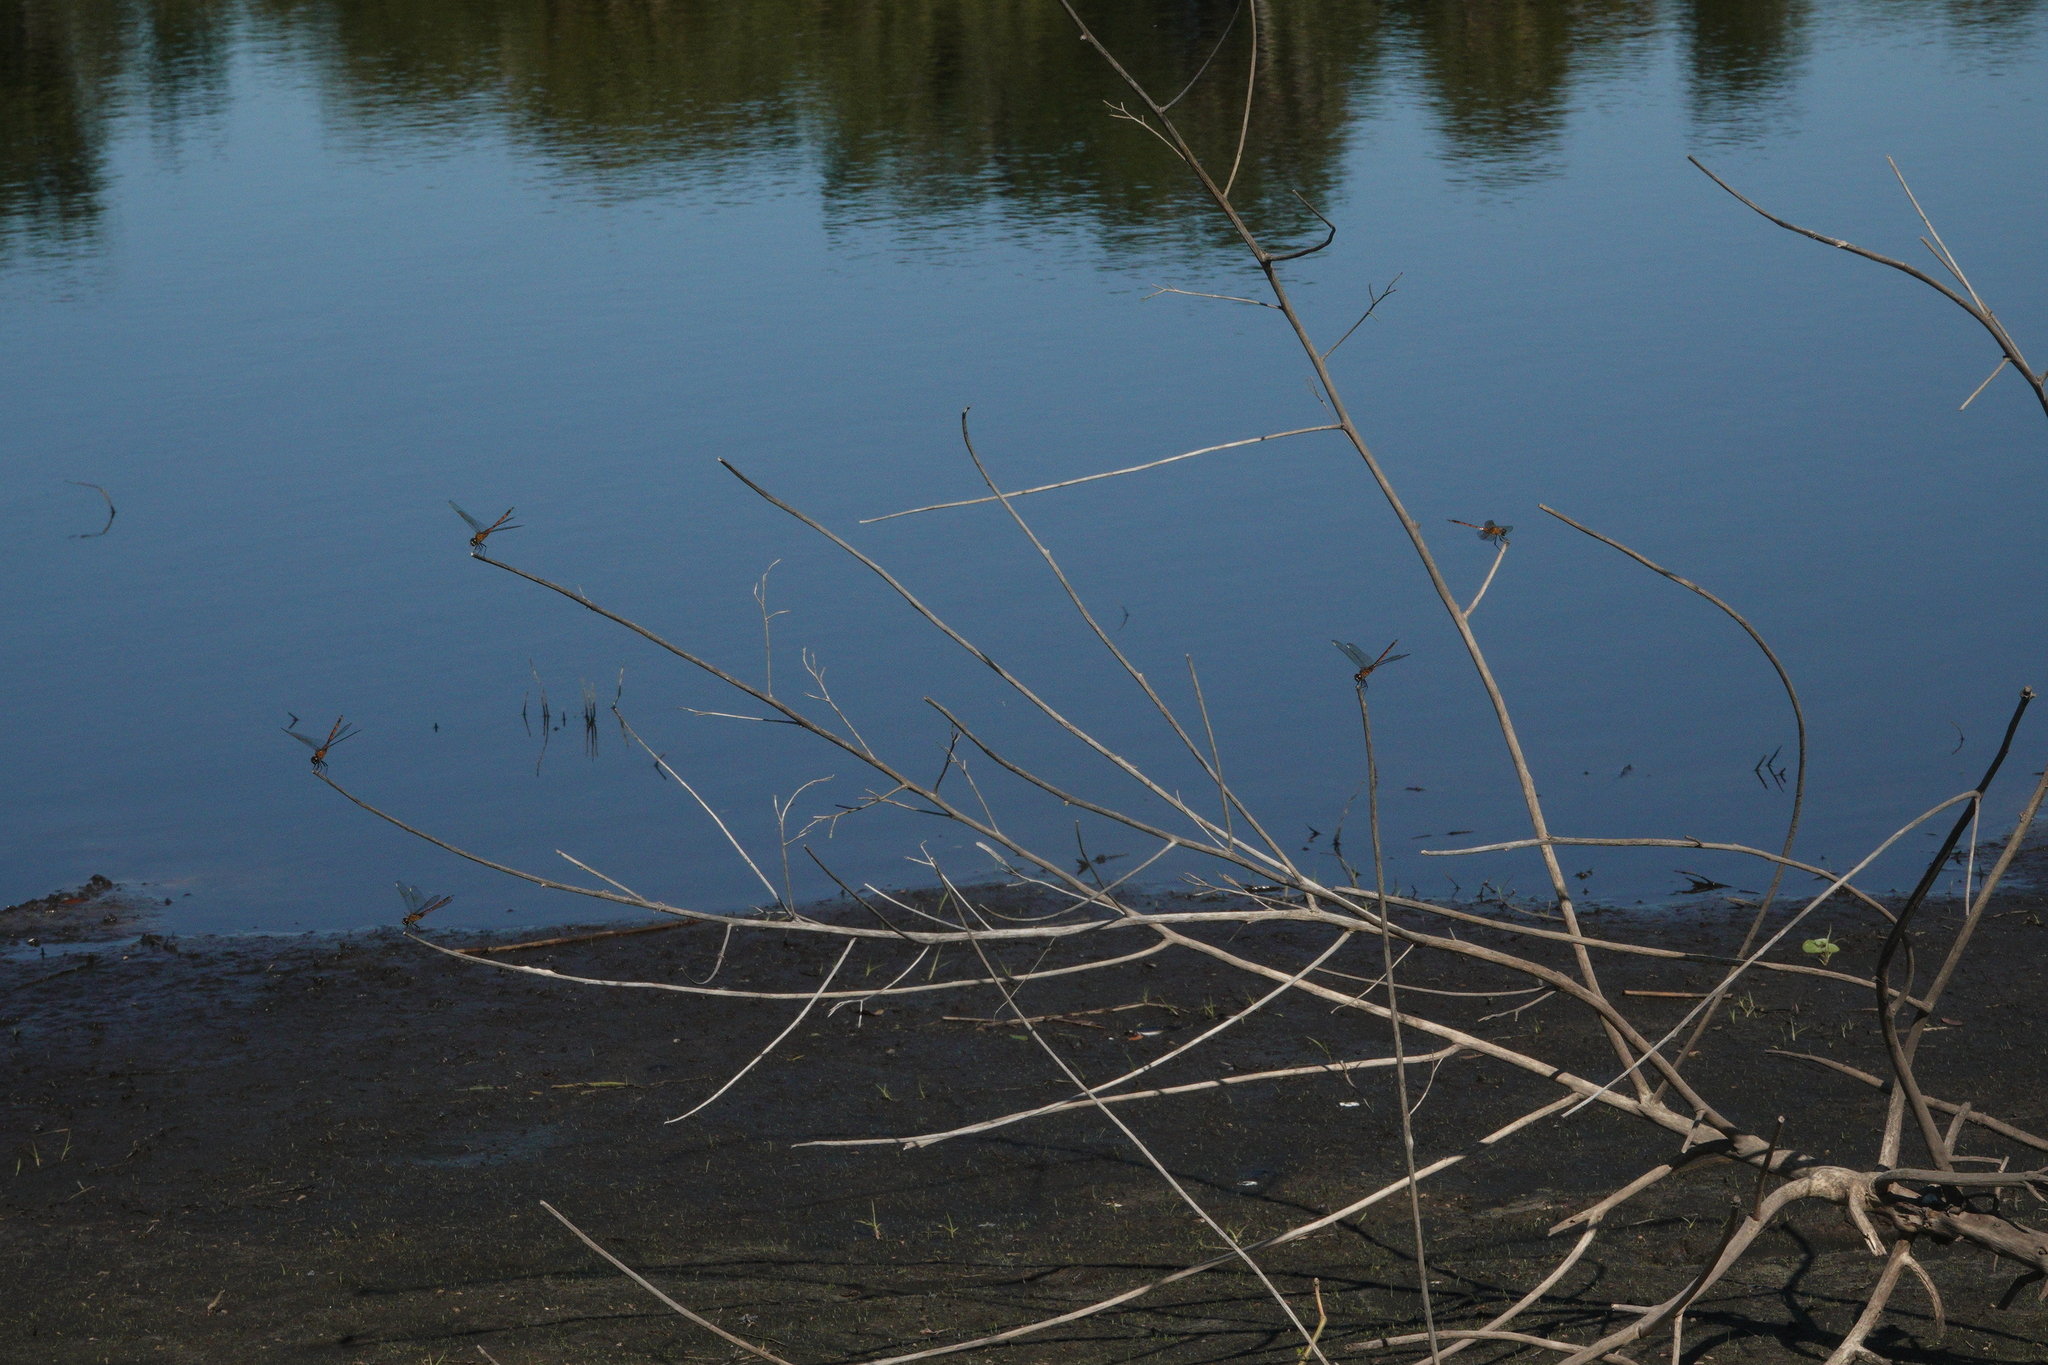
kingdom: Animalia
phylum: Arthropoda
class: Insecta
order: Odonata
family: Libellulidae
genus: Brachymesia
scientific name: Brachymesia gravida
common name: Four-spotted pennant
